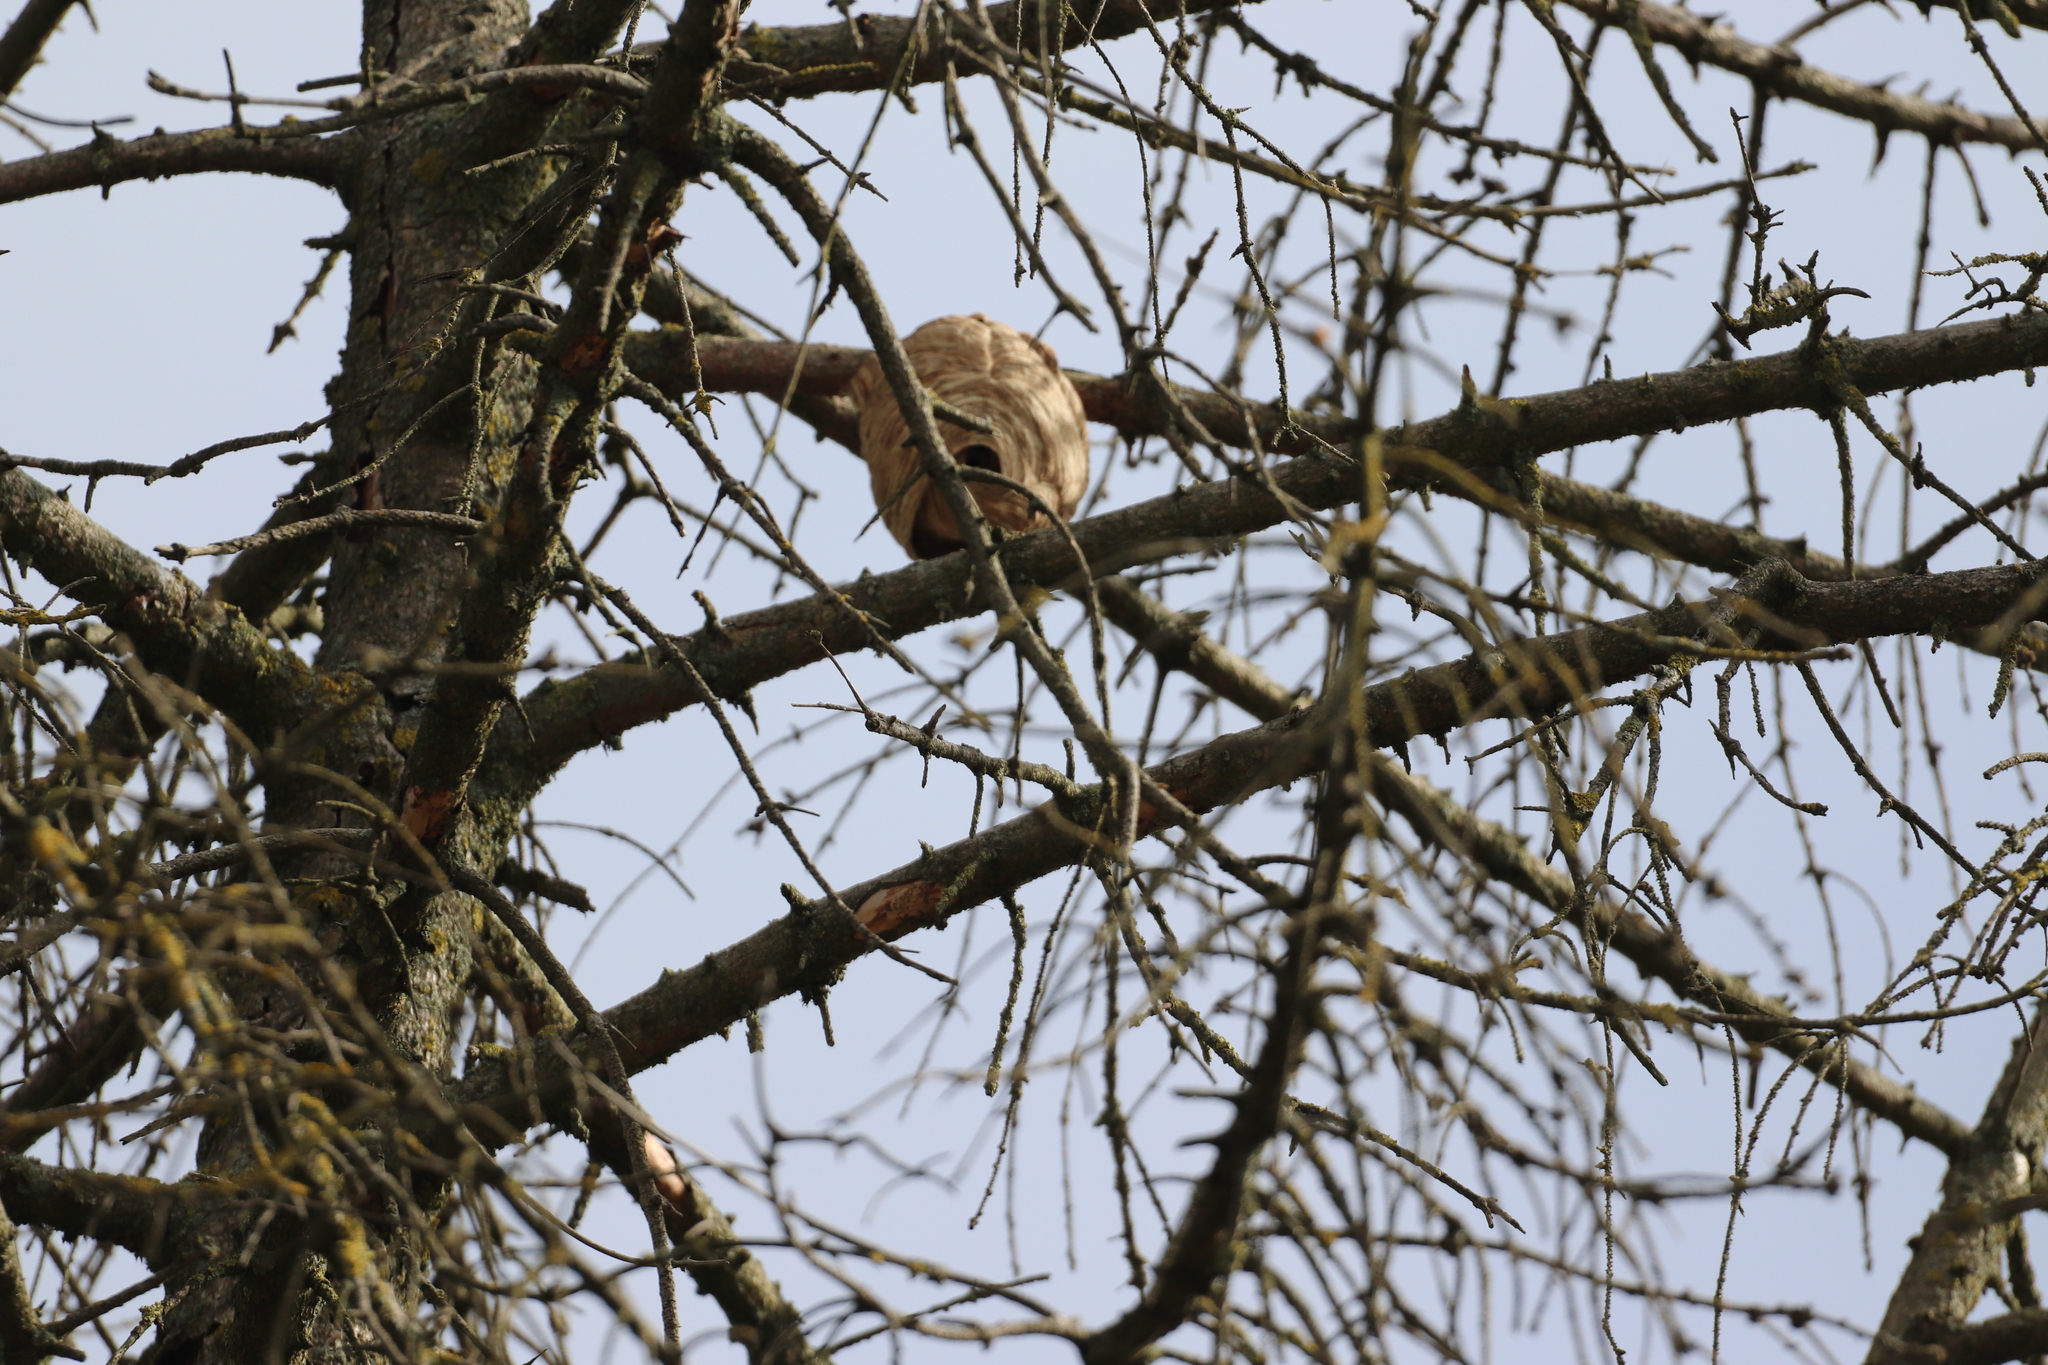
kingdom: Animalia
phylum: Arthropoda
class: Insecta
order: Hymenoptera
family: Vespidae
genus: Vespa
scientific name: Vespa velutina
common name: Asian hornet
